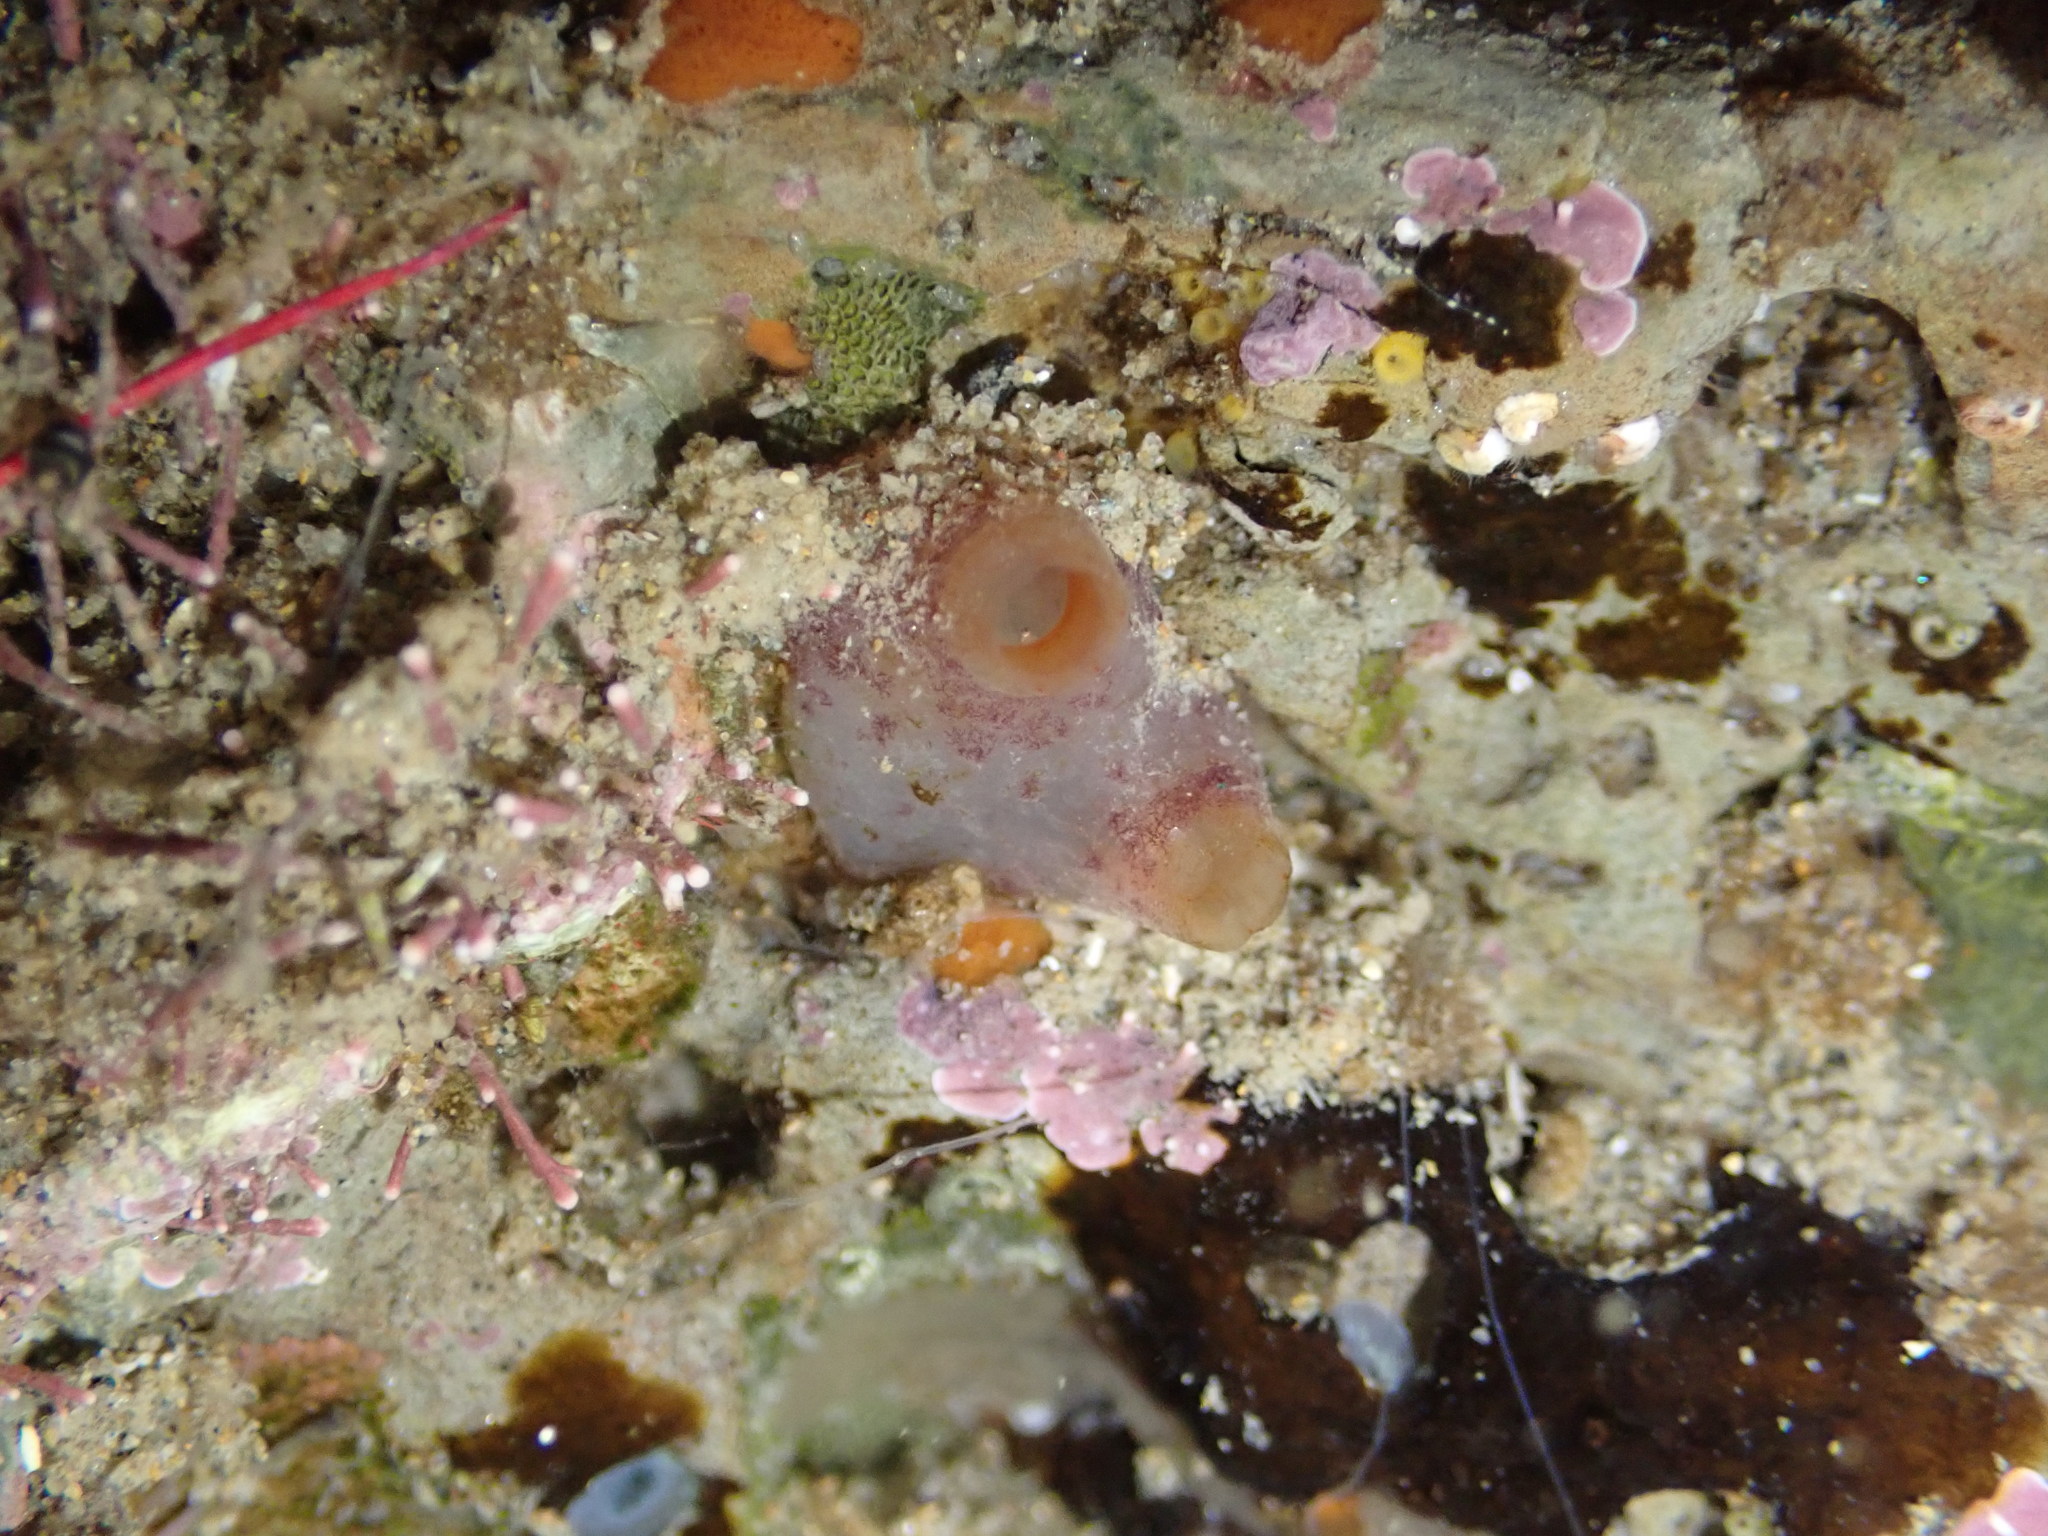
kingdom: Animalia
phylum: Chordata
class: Ascidiacea
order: Phlebobranchia
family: Corellidae
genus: Corella
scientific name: Corella eumyota
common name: Orange-tipped sea squirt
